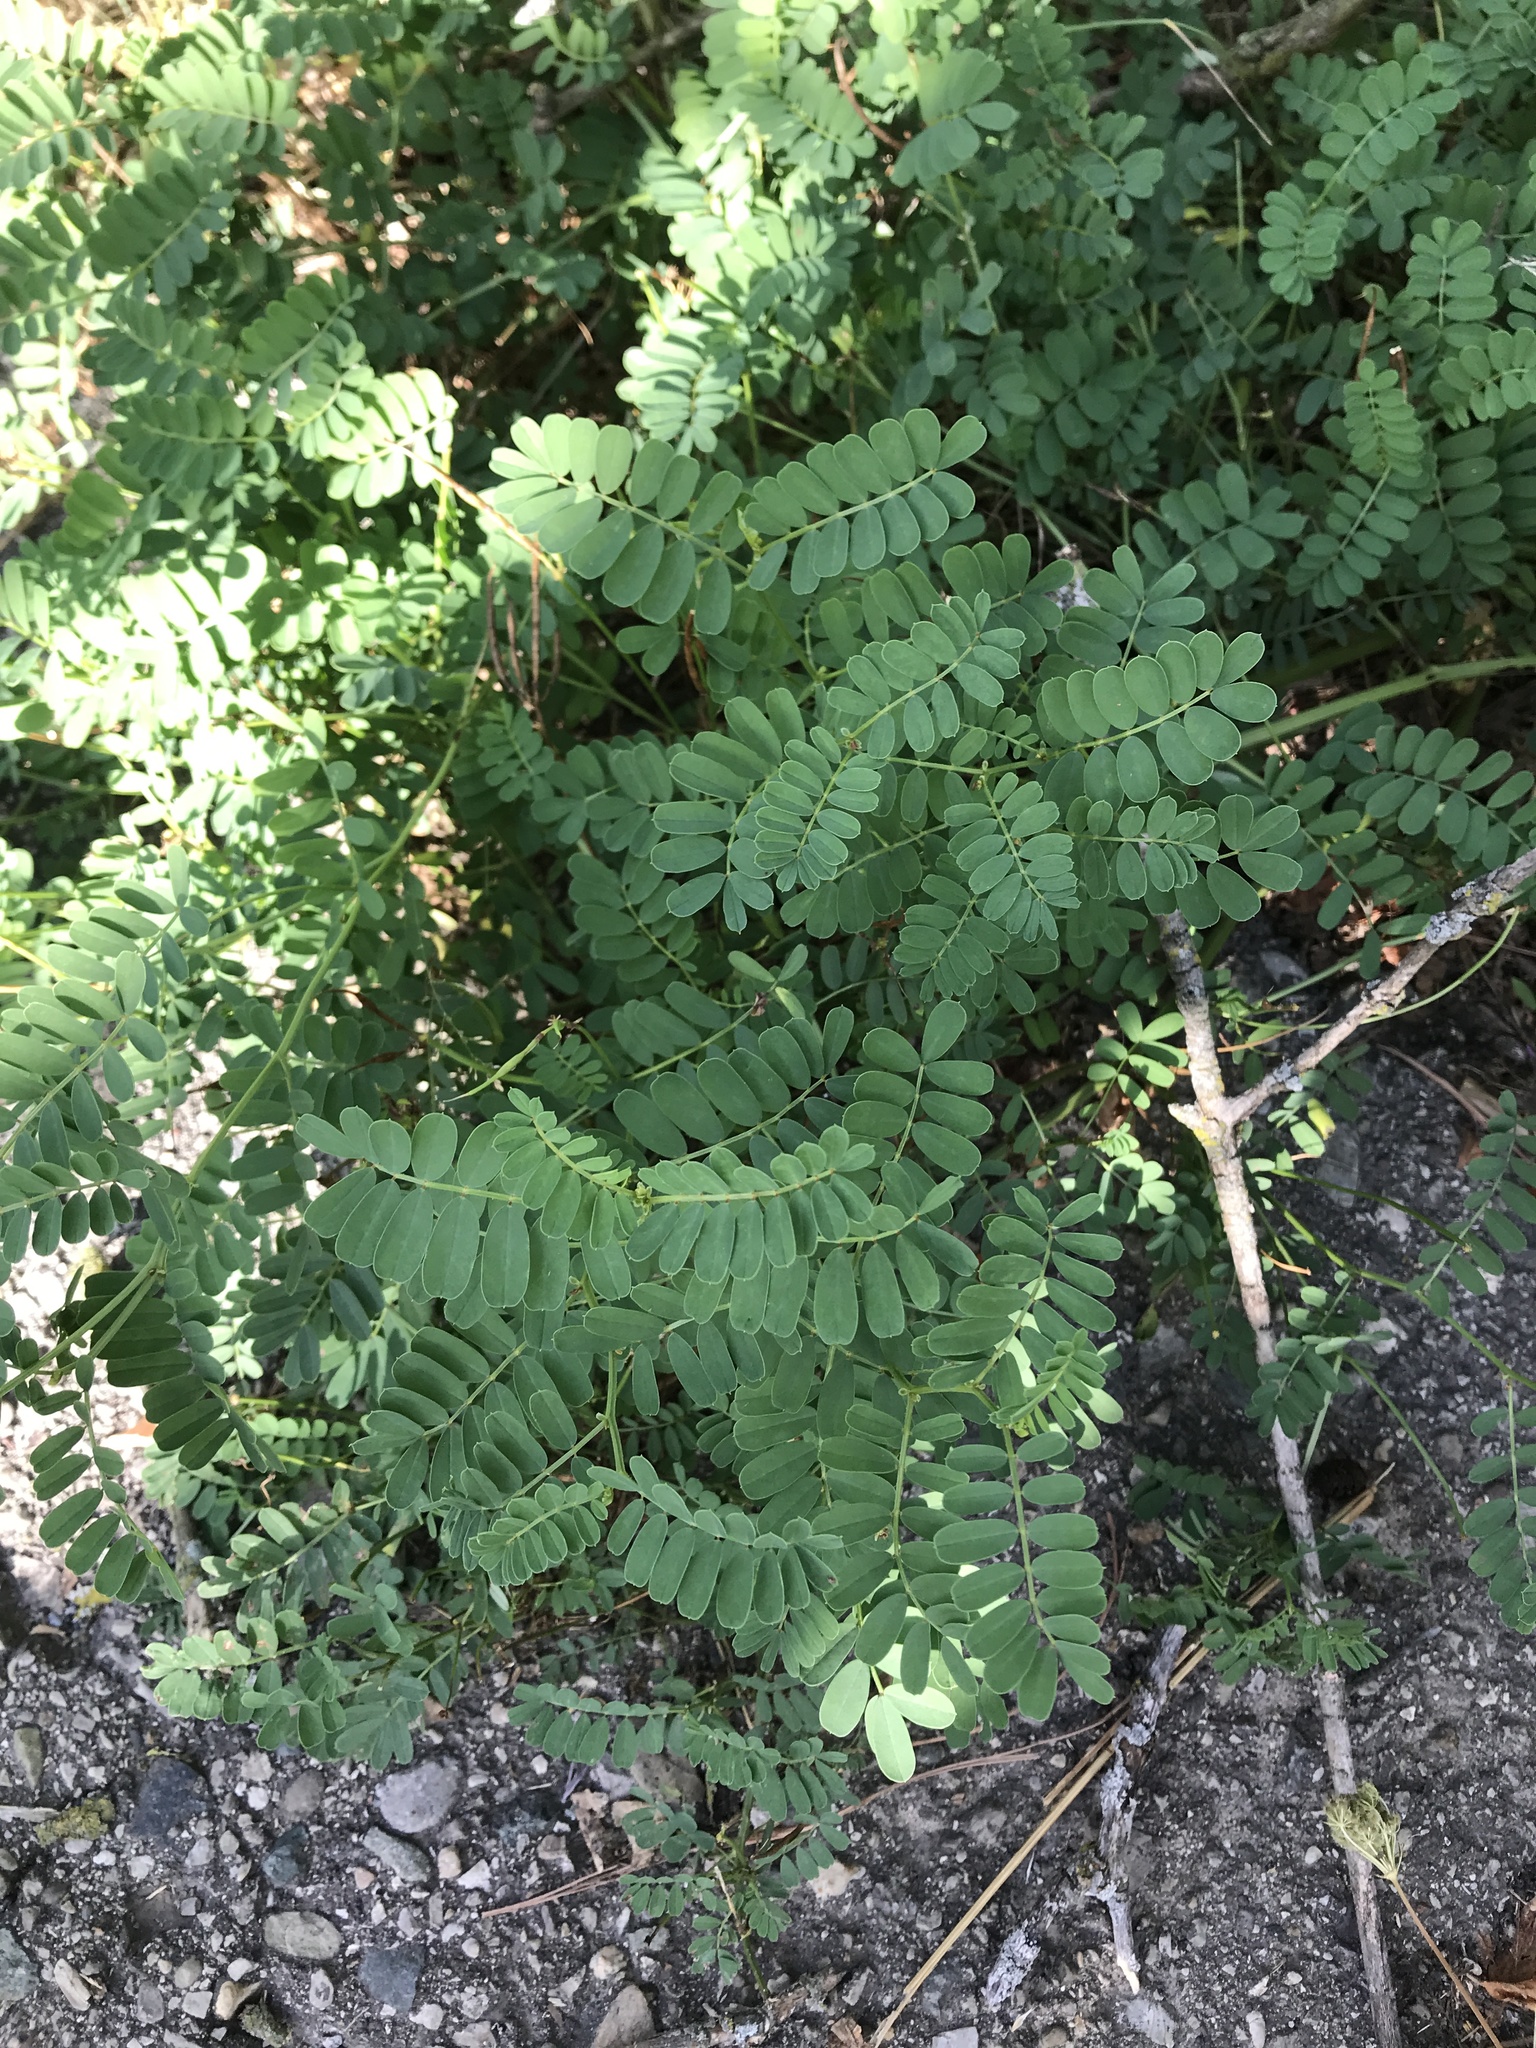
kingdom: Plantae
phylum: Tracheophyta
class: Magnoliopsida
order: Fabales
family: Fabaceae
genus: Coronilla
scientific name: Coronilla varia
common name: Crownvetch
